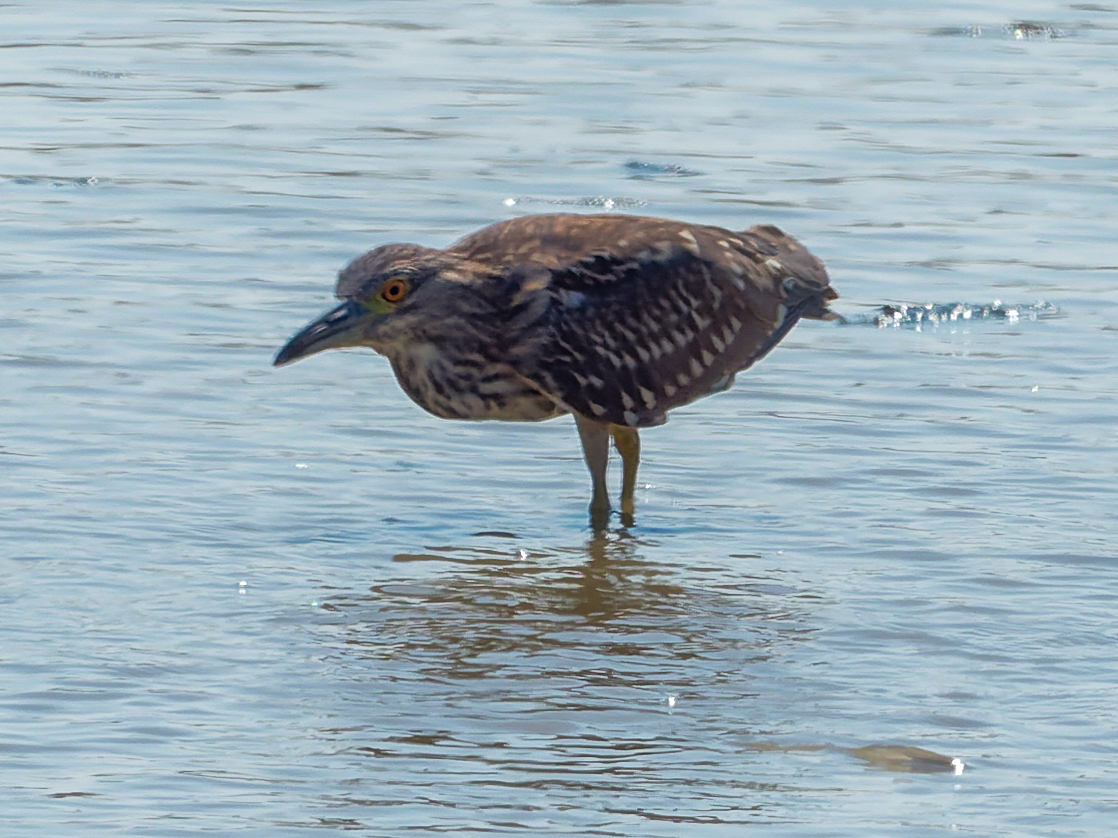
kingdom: Animalia
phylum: Chordata
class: Aves
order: Pelecaniformes
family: Ardeidae
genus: Nycticorax
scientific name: Nycticorax nycticorax
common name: Black-crowned night heron
